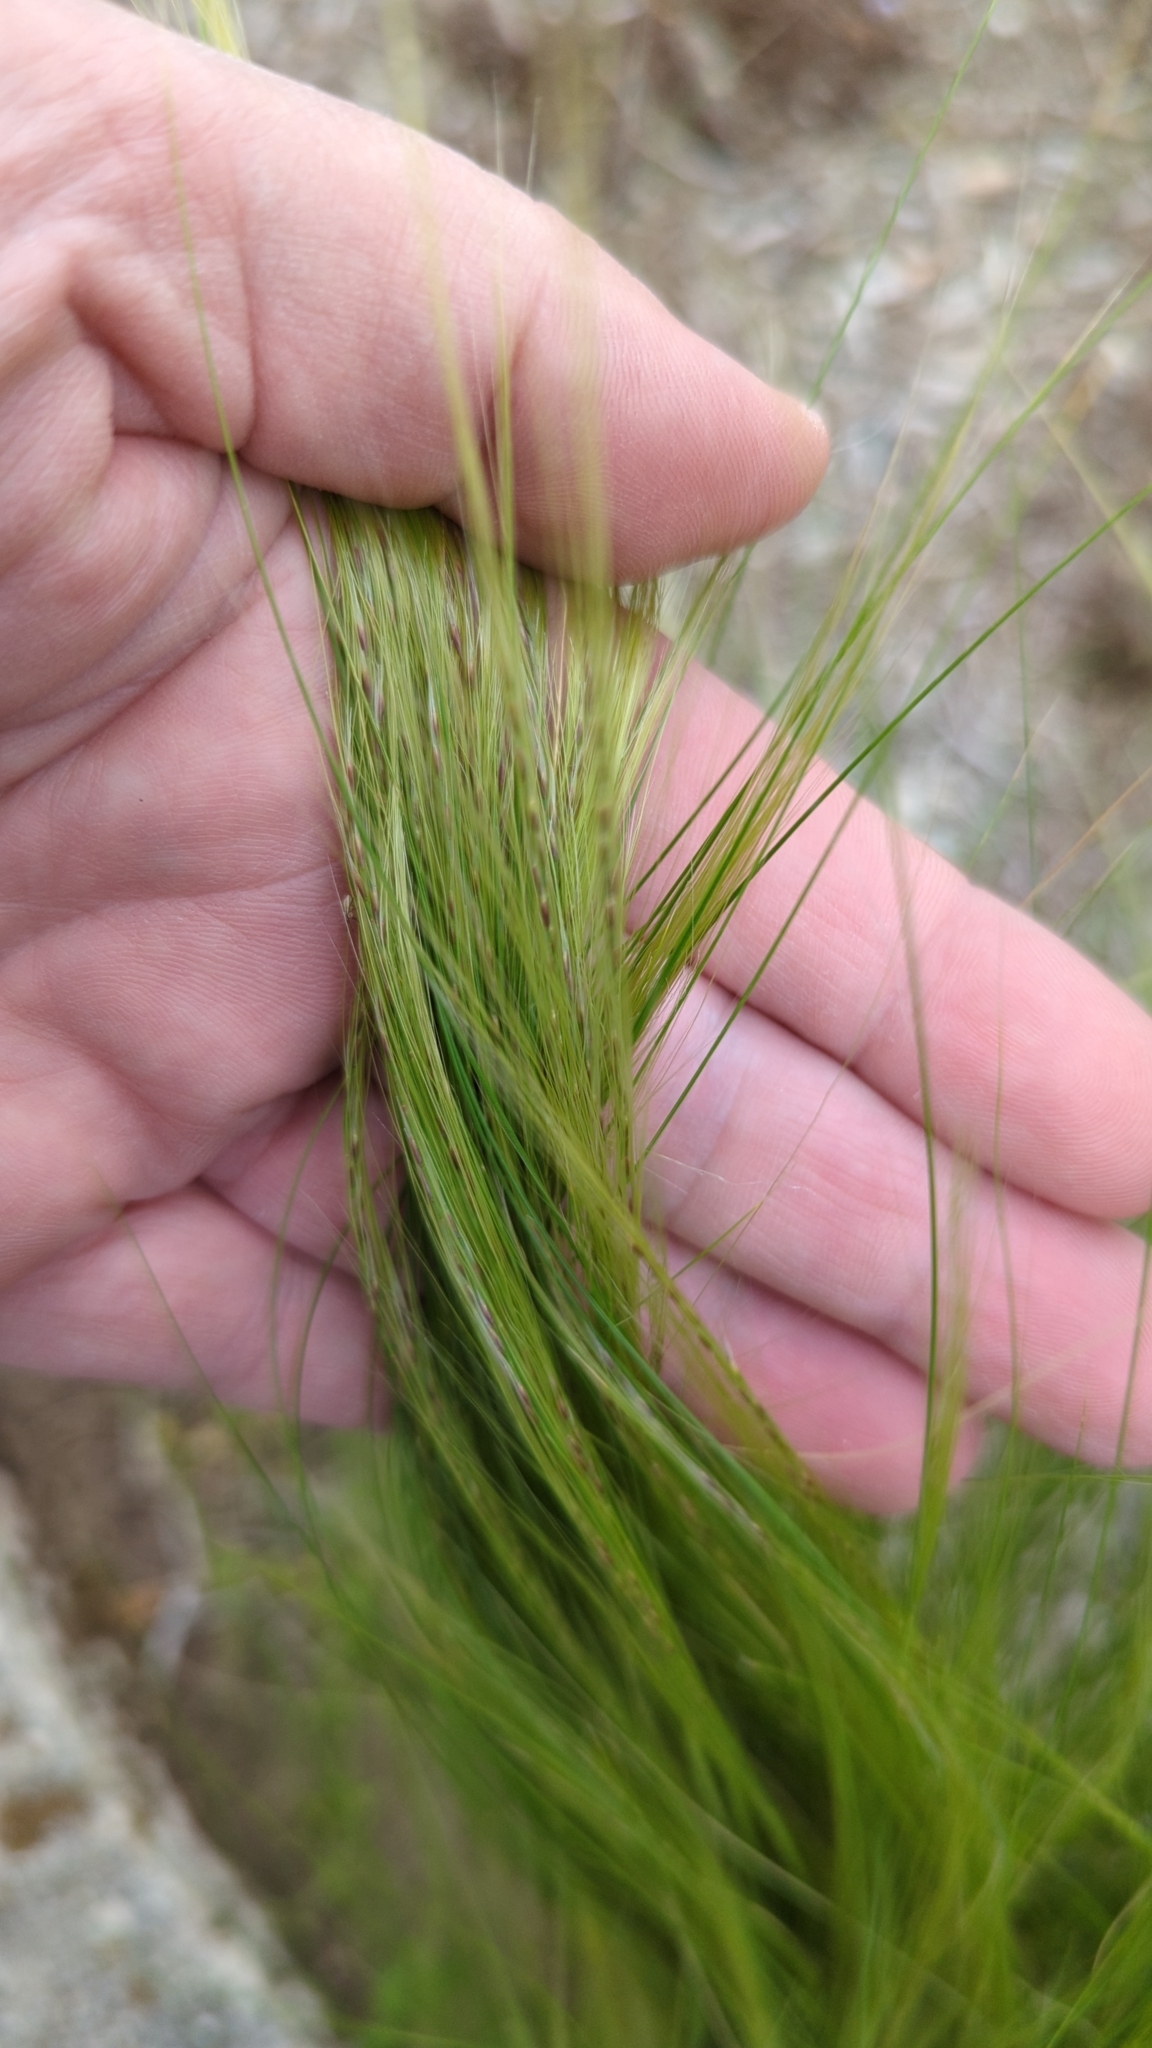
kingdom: Plantae
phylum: Tracheophyta
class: Liliopsida
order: Poales
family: Poaceae
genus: Nassella
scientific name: Nassella tenuissima
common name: Argentine needlegrass
